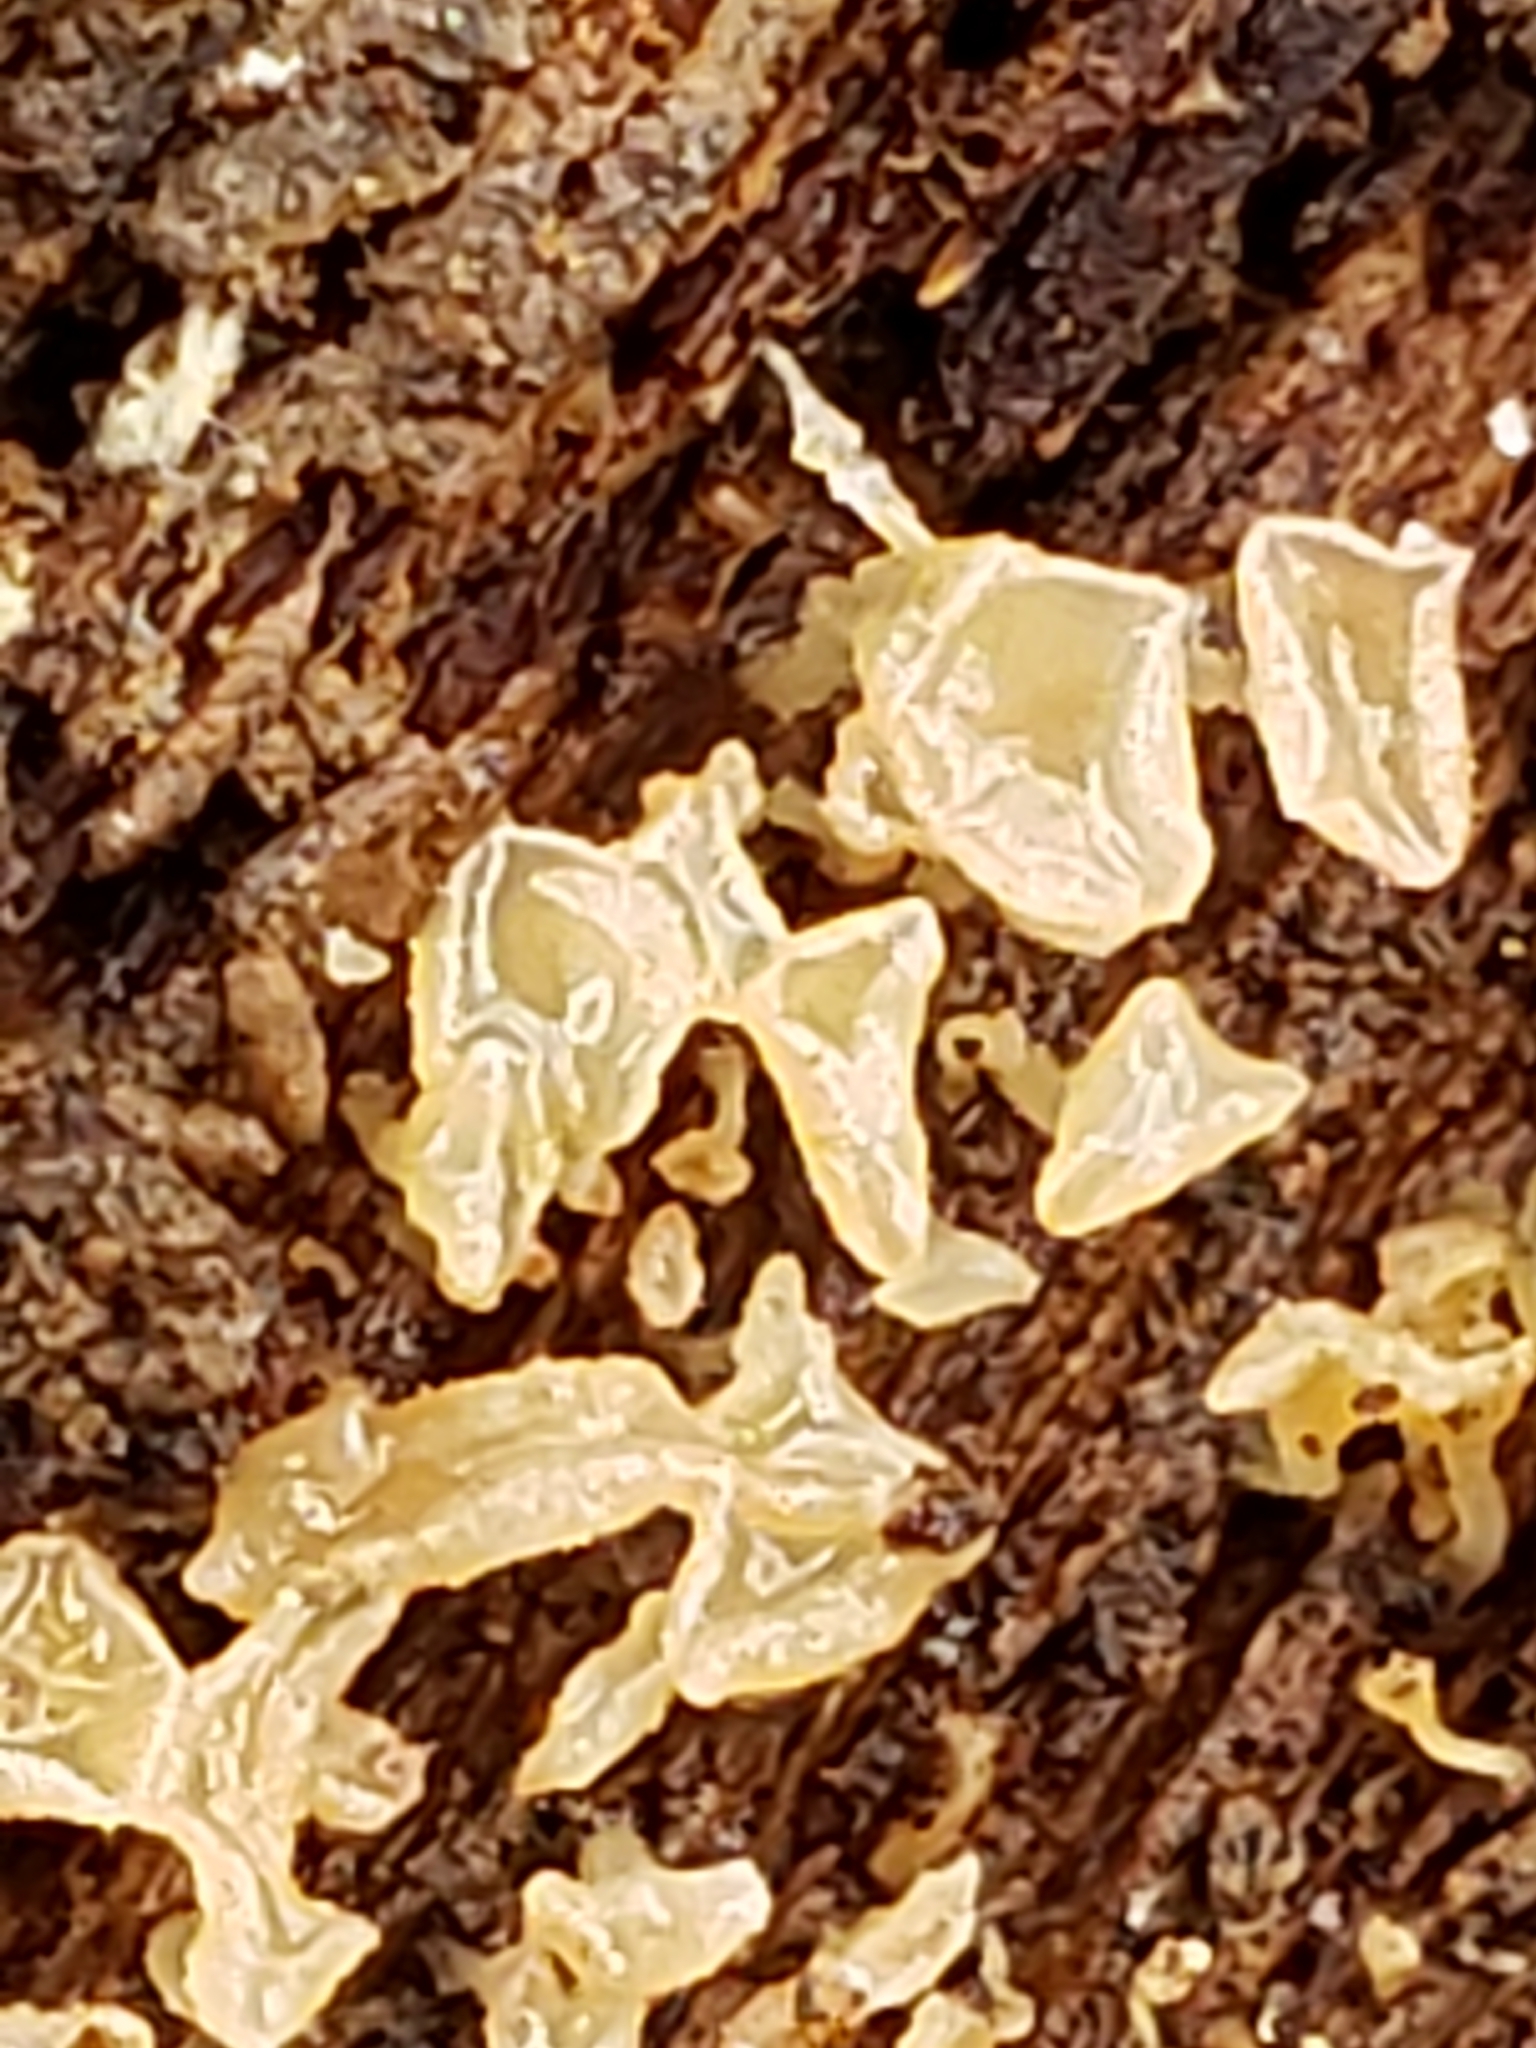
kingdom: Fungi
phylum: Ascomycota
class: Leotiomycetes
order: Helotiales
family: Lachnaceae
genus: Lachnum
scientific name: Lachnum virgineum
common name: Snowy disco
